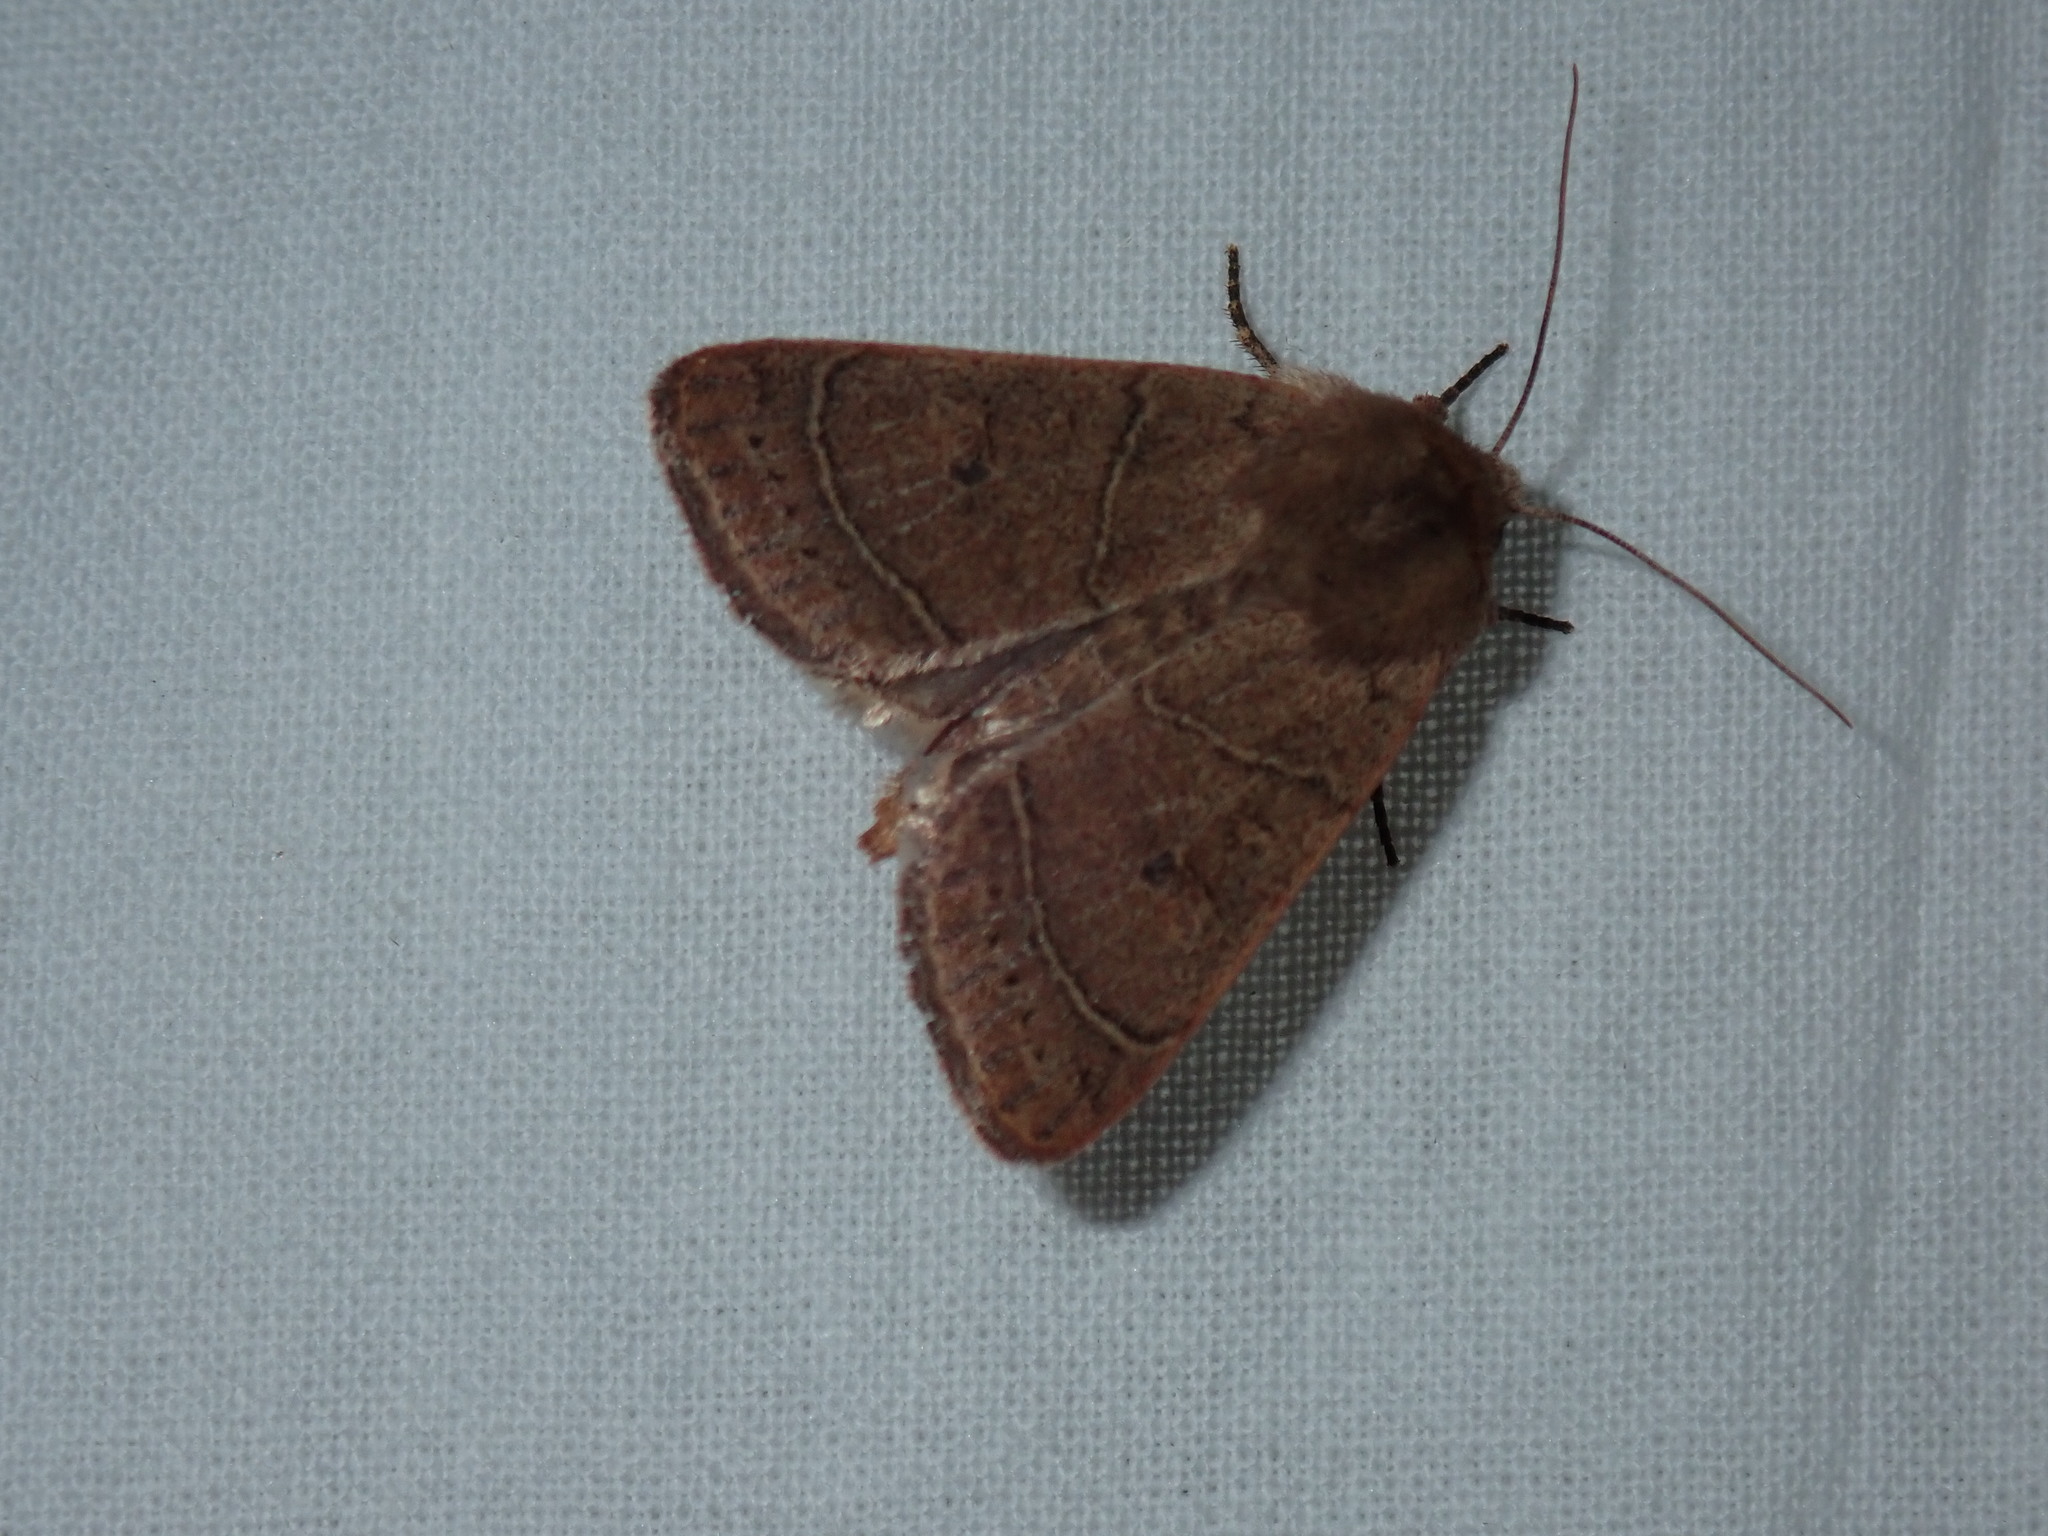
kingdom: Animalia
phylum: Arthropoda
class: Insecta
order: Lepidoptera
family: Noctuidae
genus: Ulolonche
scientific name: Ulolonche culea
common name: Sheathed quaker
